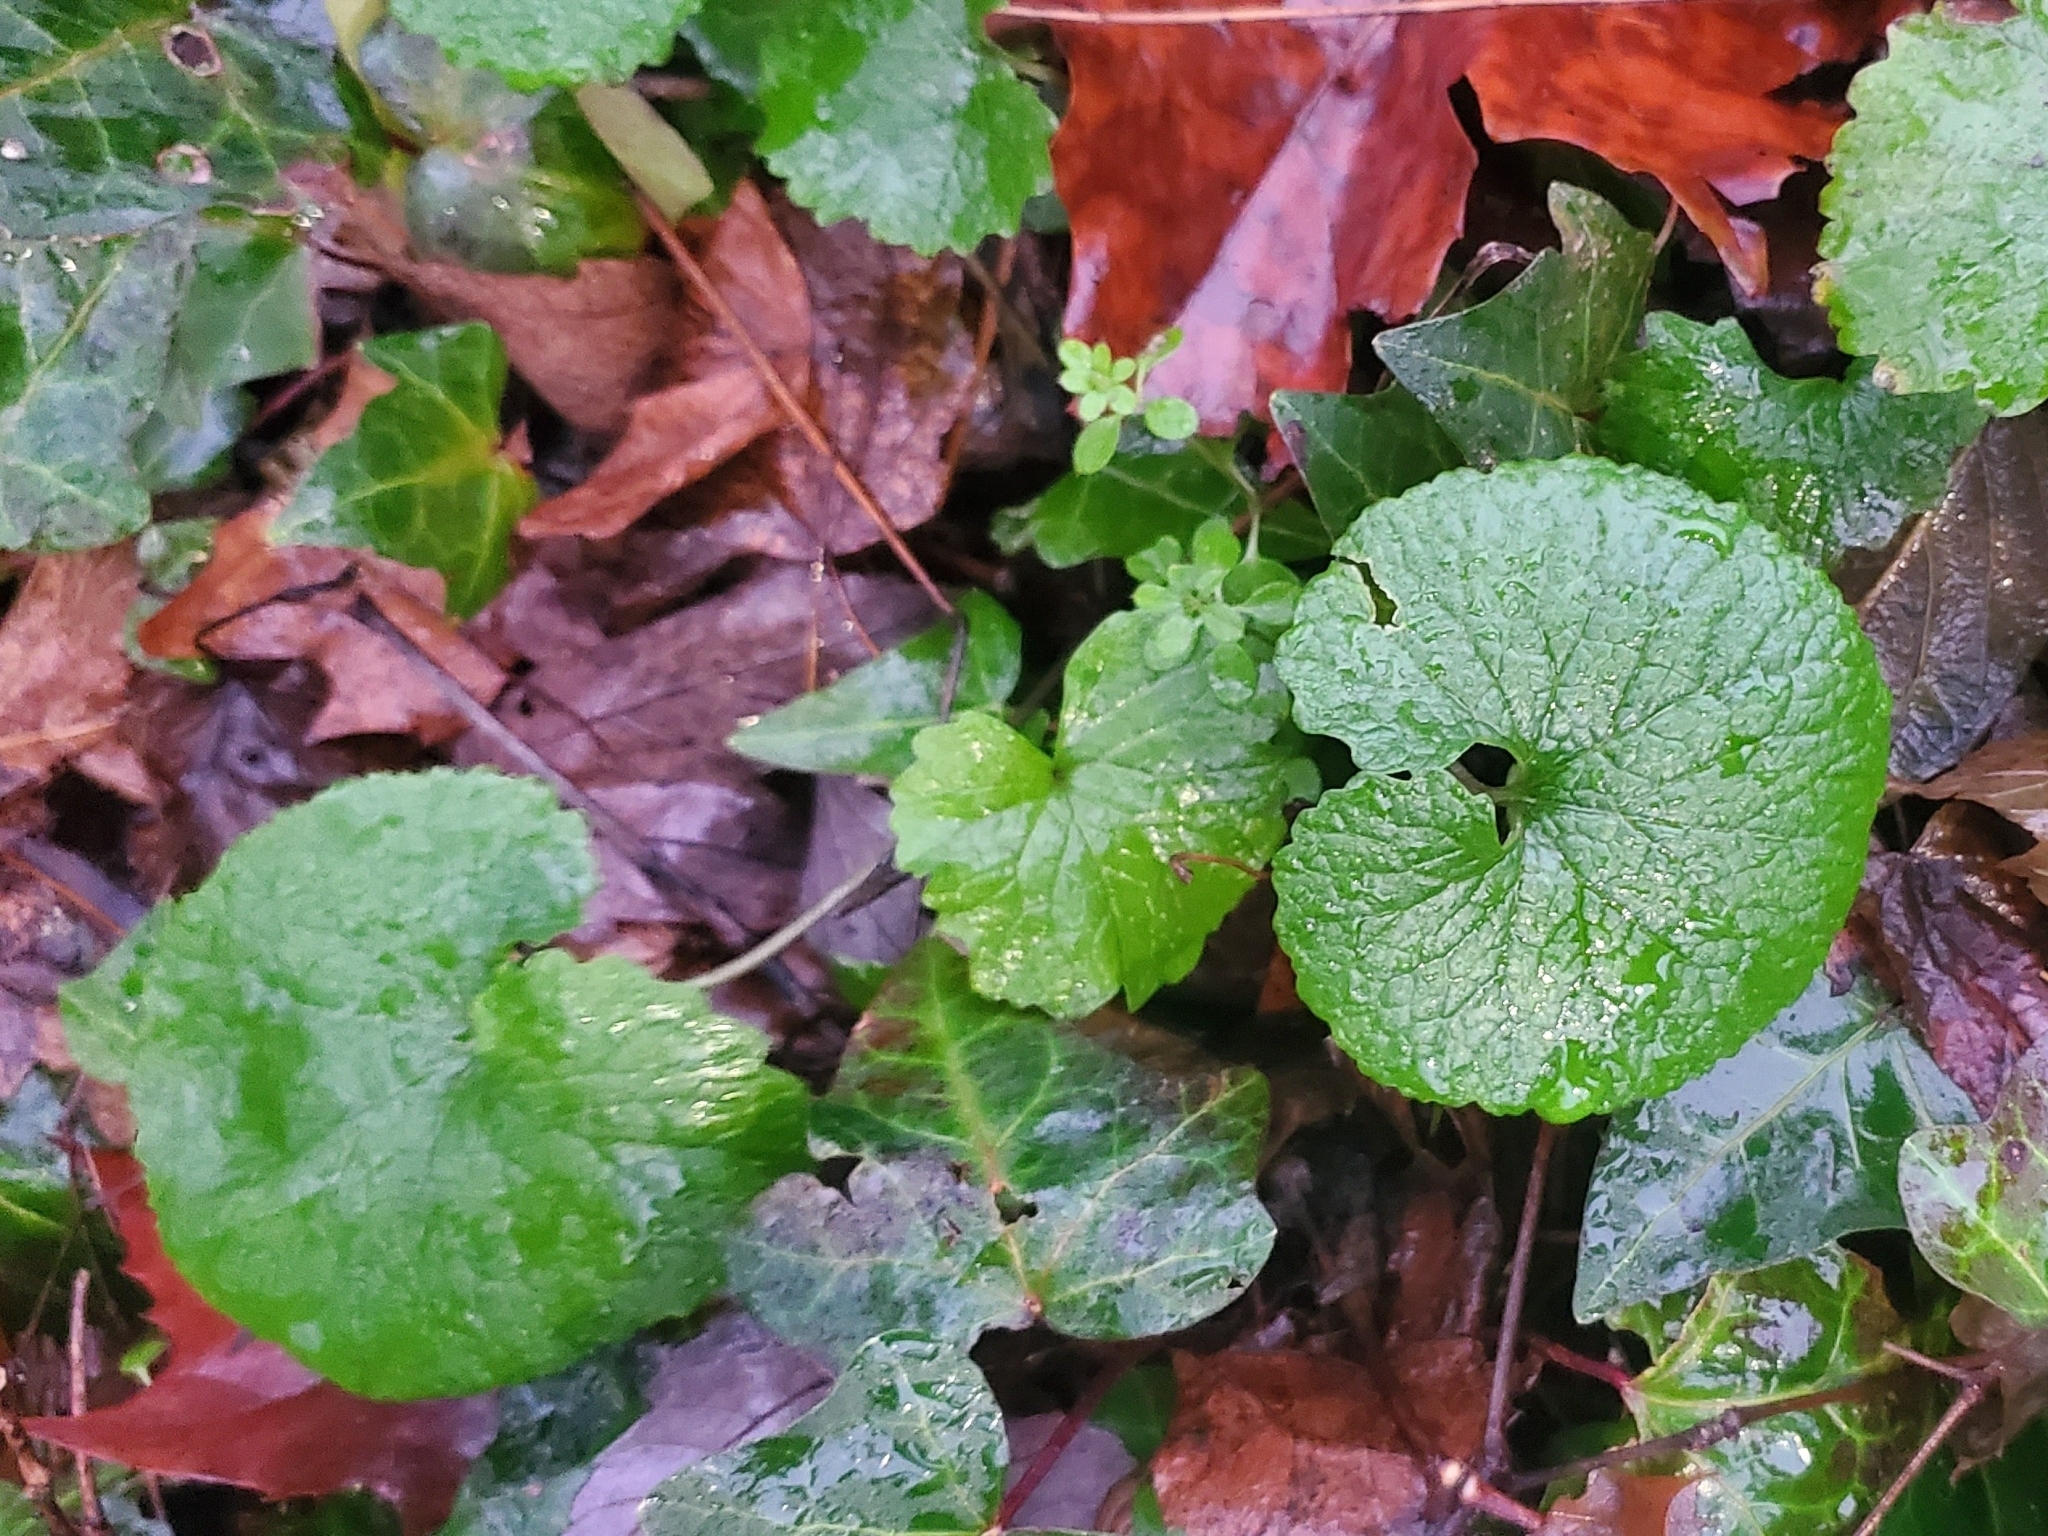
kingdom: Plantae
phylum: Tracheophyta
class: Magnoliopsida
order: Brassicales
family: Brassicaceae
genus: Alliaria
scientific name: Alliaria petiolata
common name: Garlic mustard
